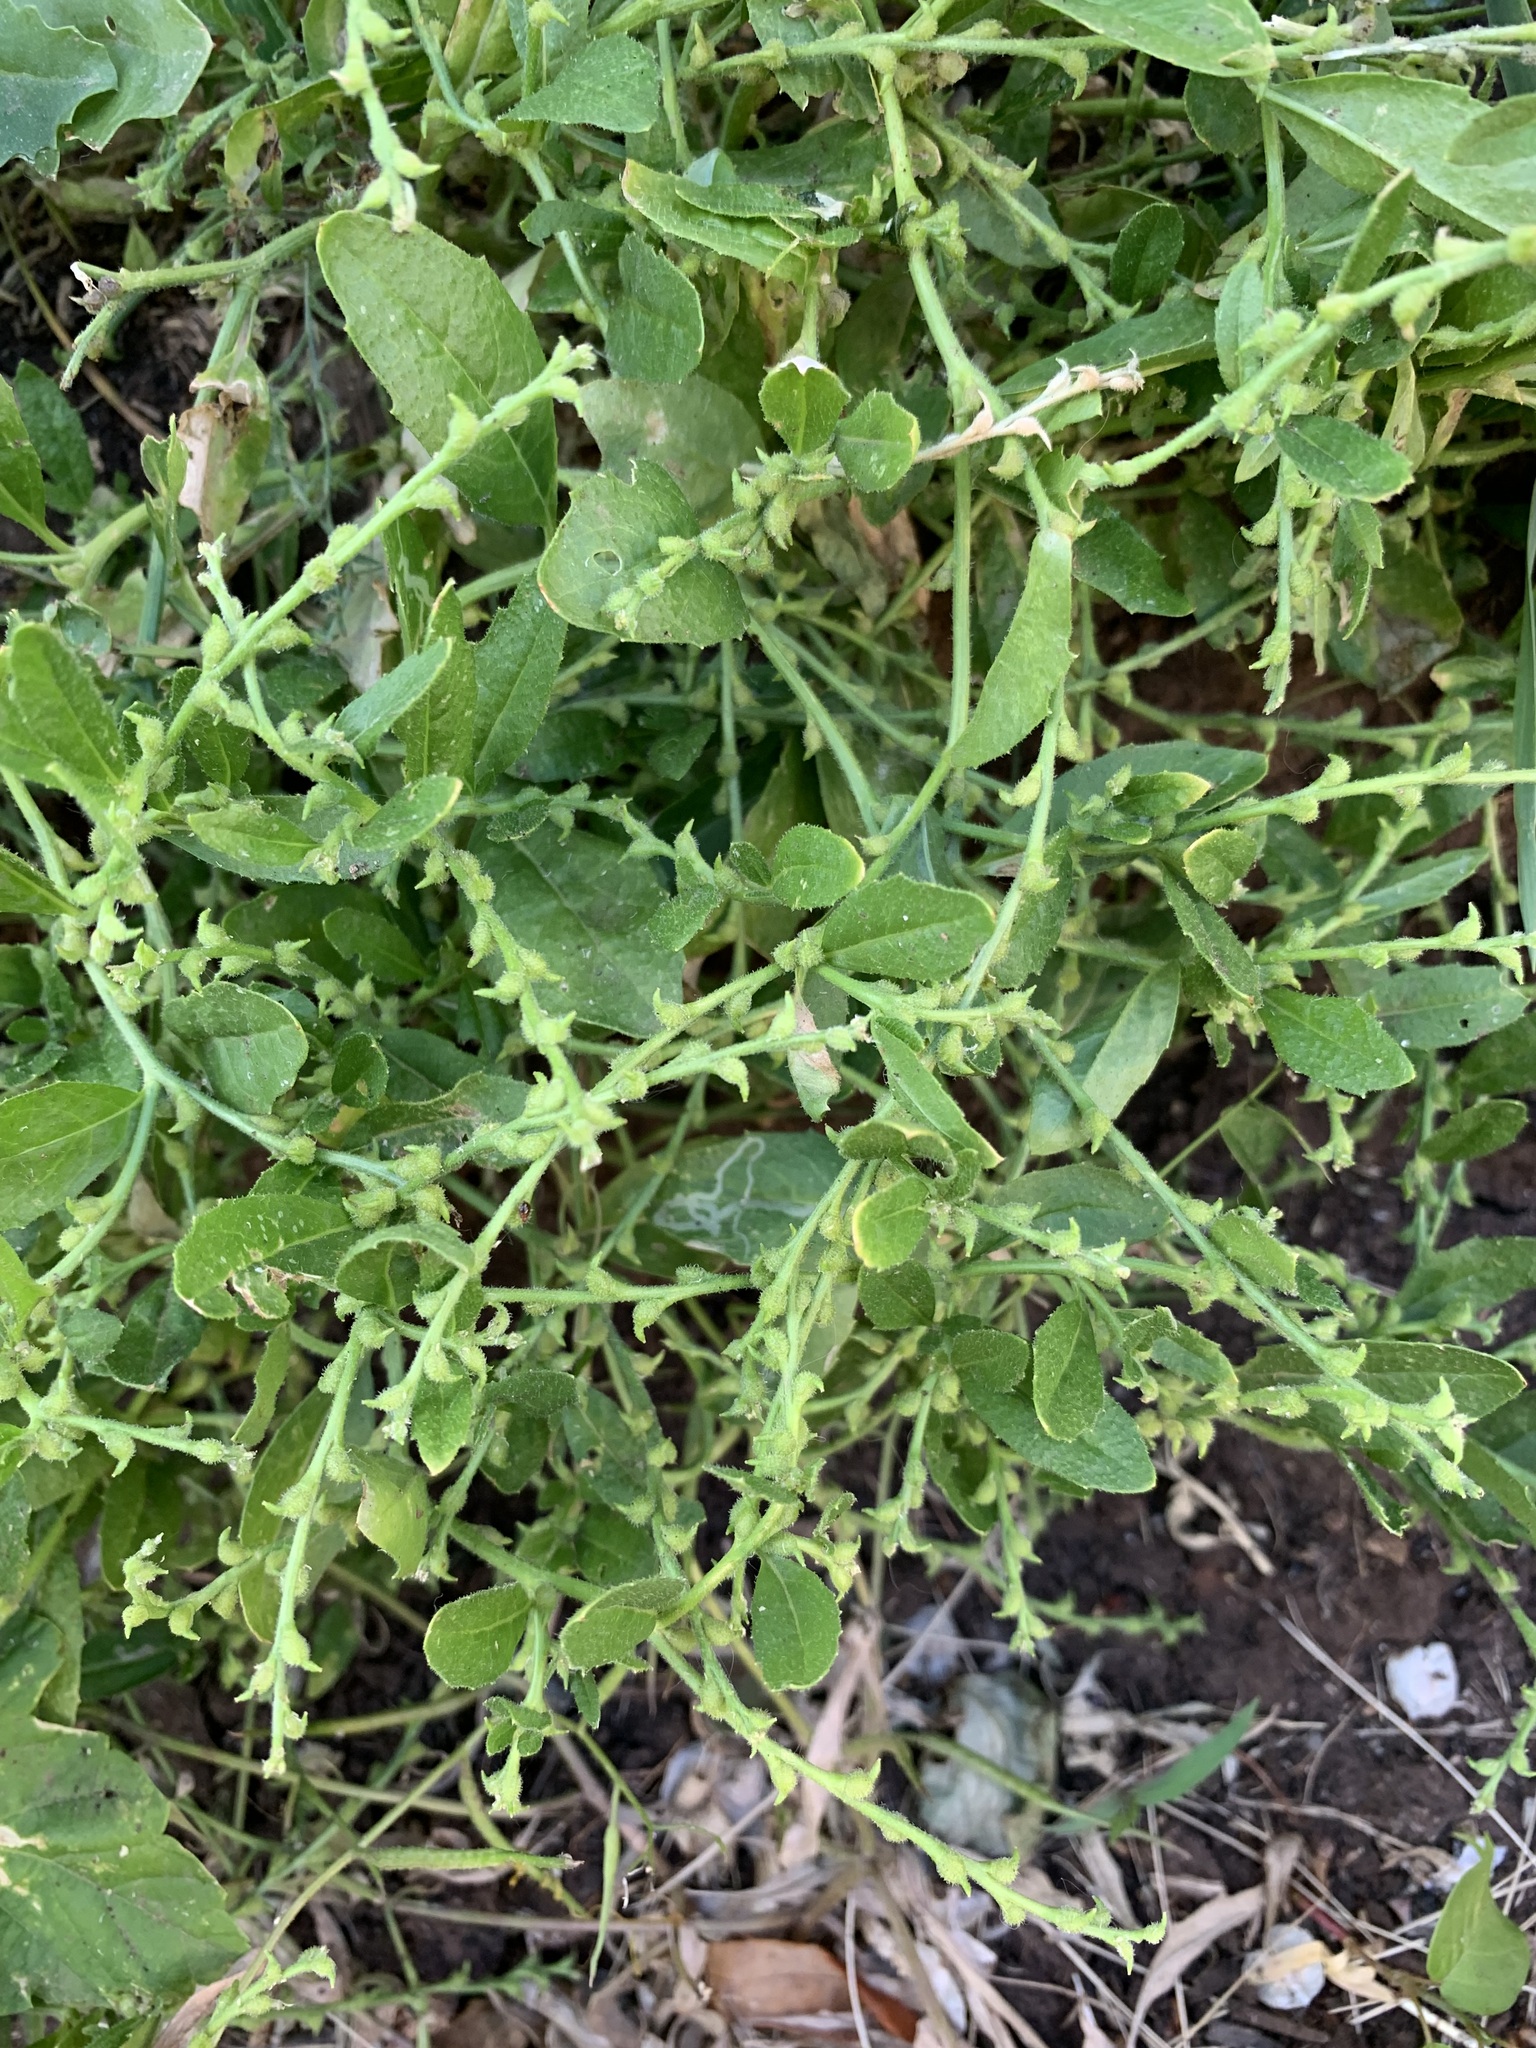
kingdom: Plantae
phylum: Tracheophyta
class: Magnoliopsida
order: Brassicales
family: Brassicaceae
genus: Euclidium
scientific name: Euclidium syriacum
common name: Syrian mustard
